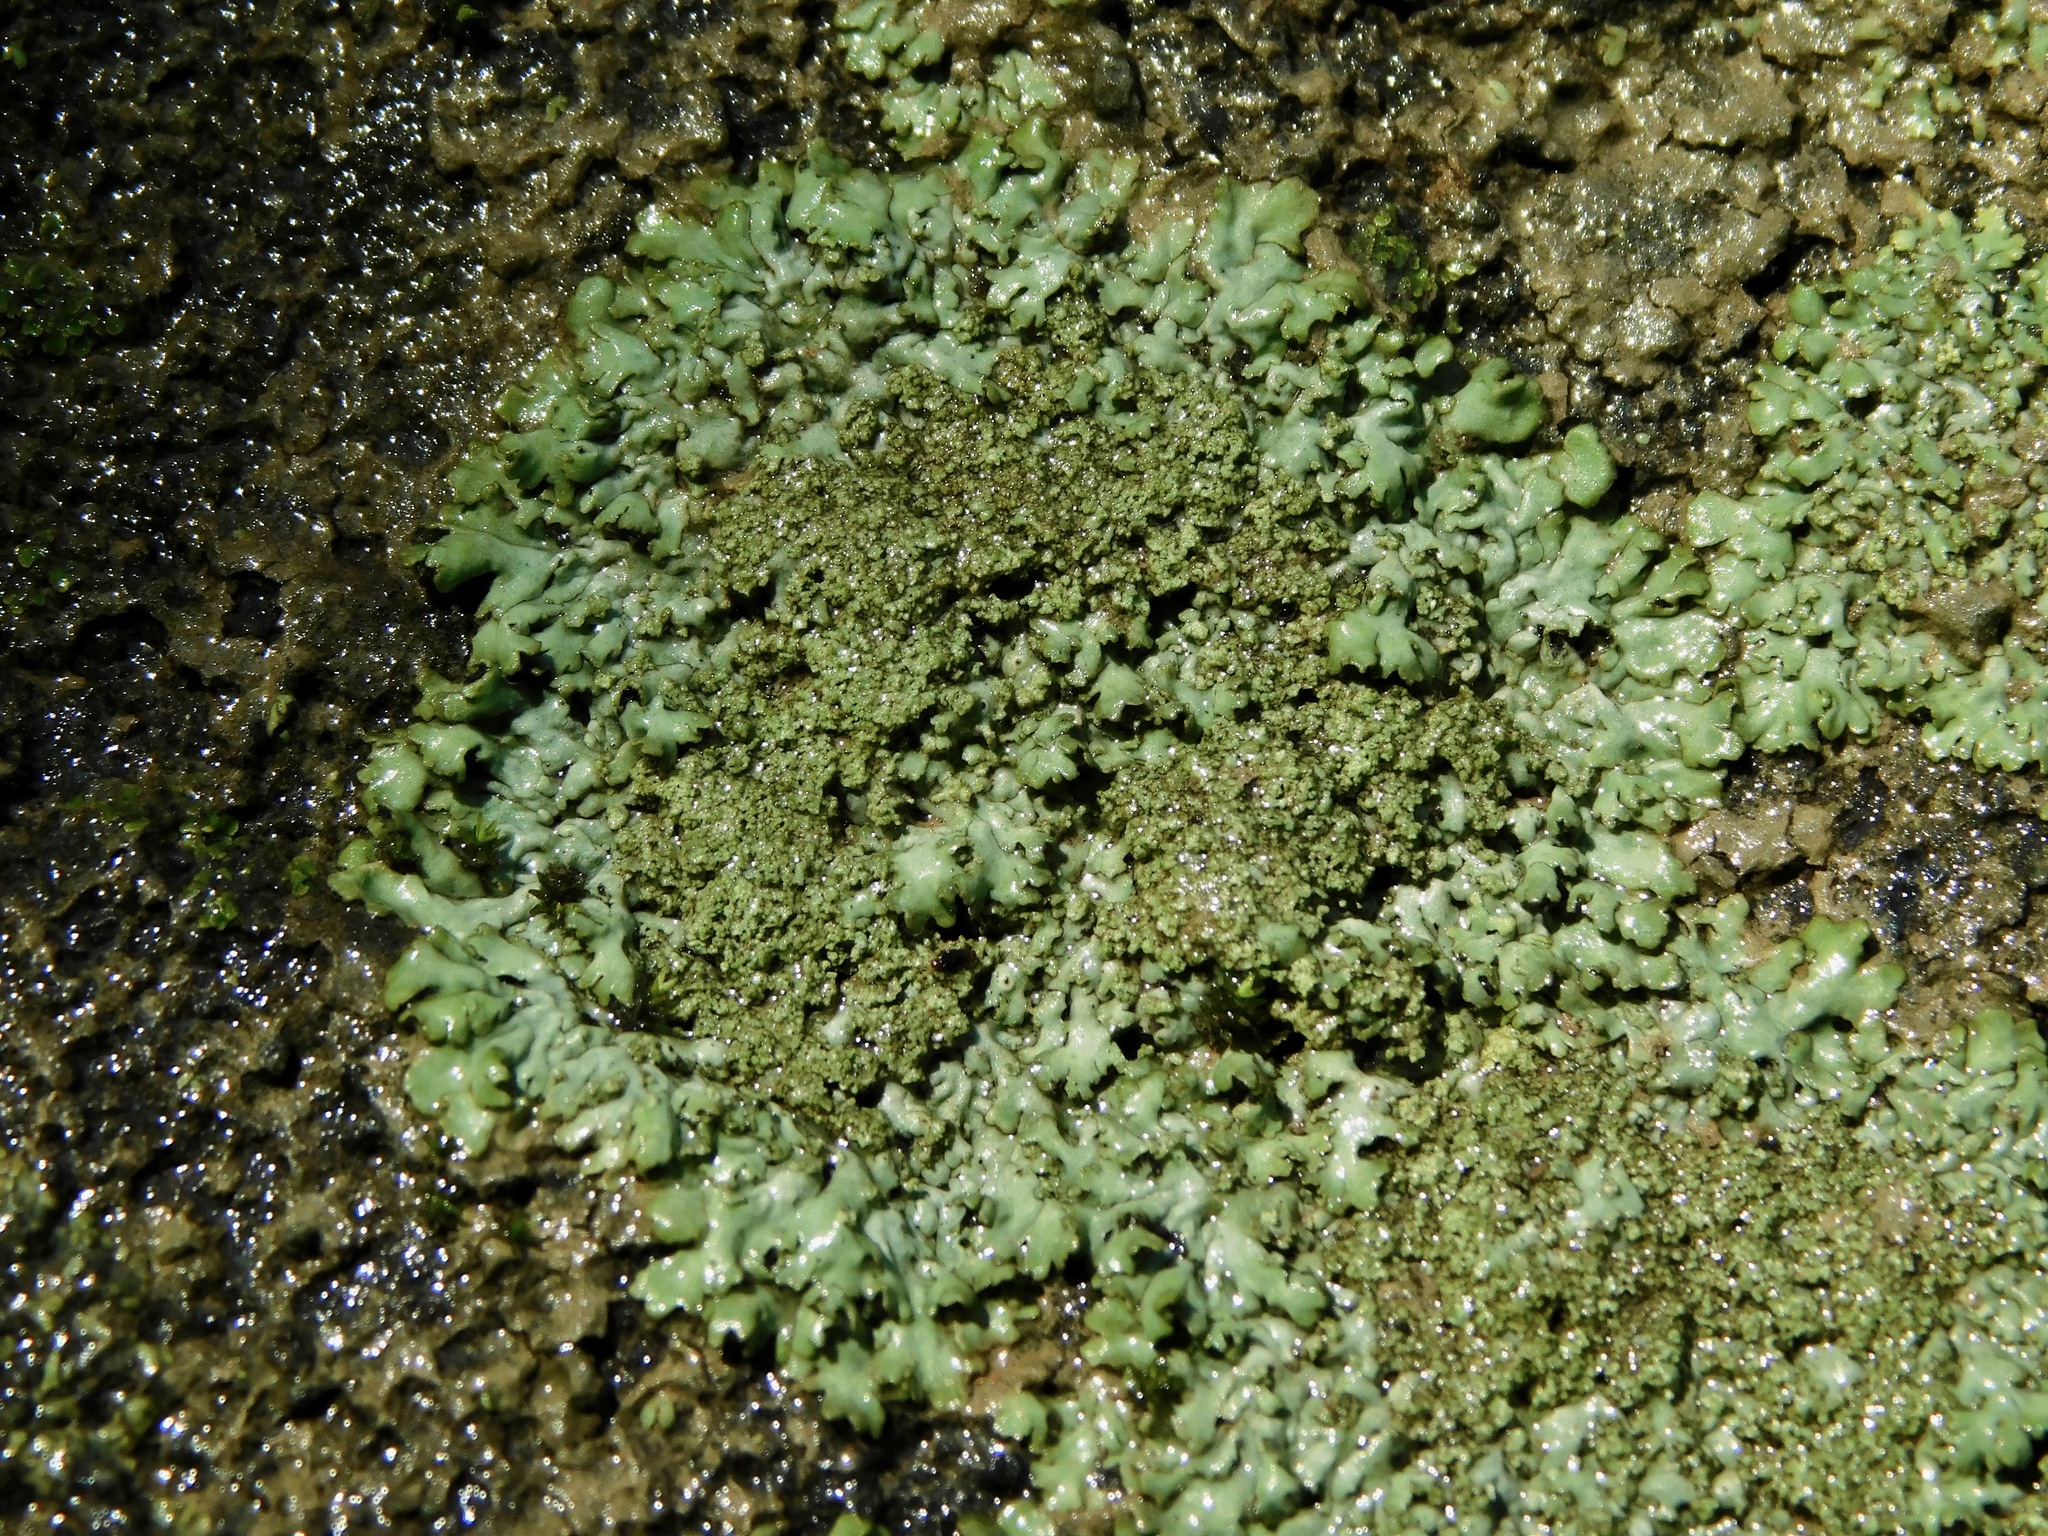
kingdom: Fungi
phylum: Ascomycota
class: Lecanoromycetes
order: Lecanorales
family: Parmeliaceae
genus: Xanthoparmelia
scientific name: Xanthoparmelia plittii
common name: Plitt's rock shield
